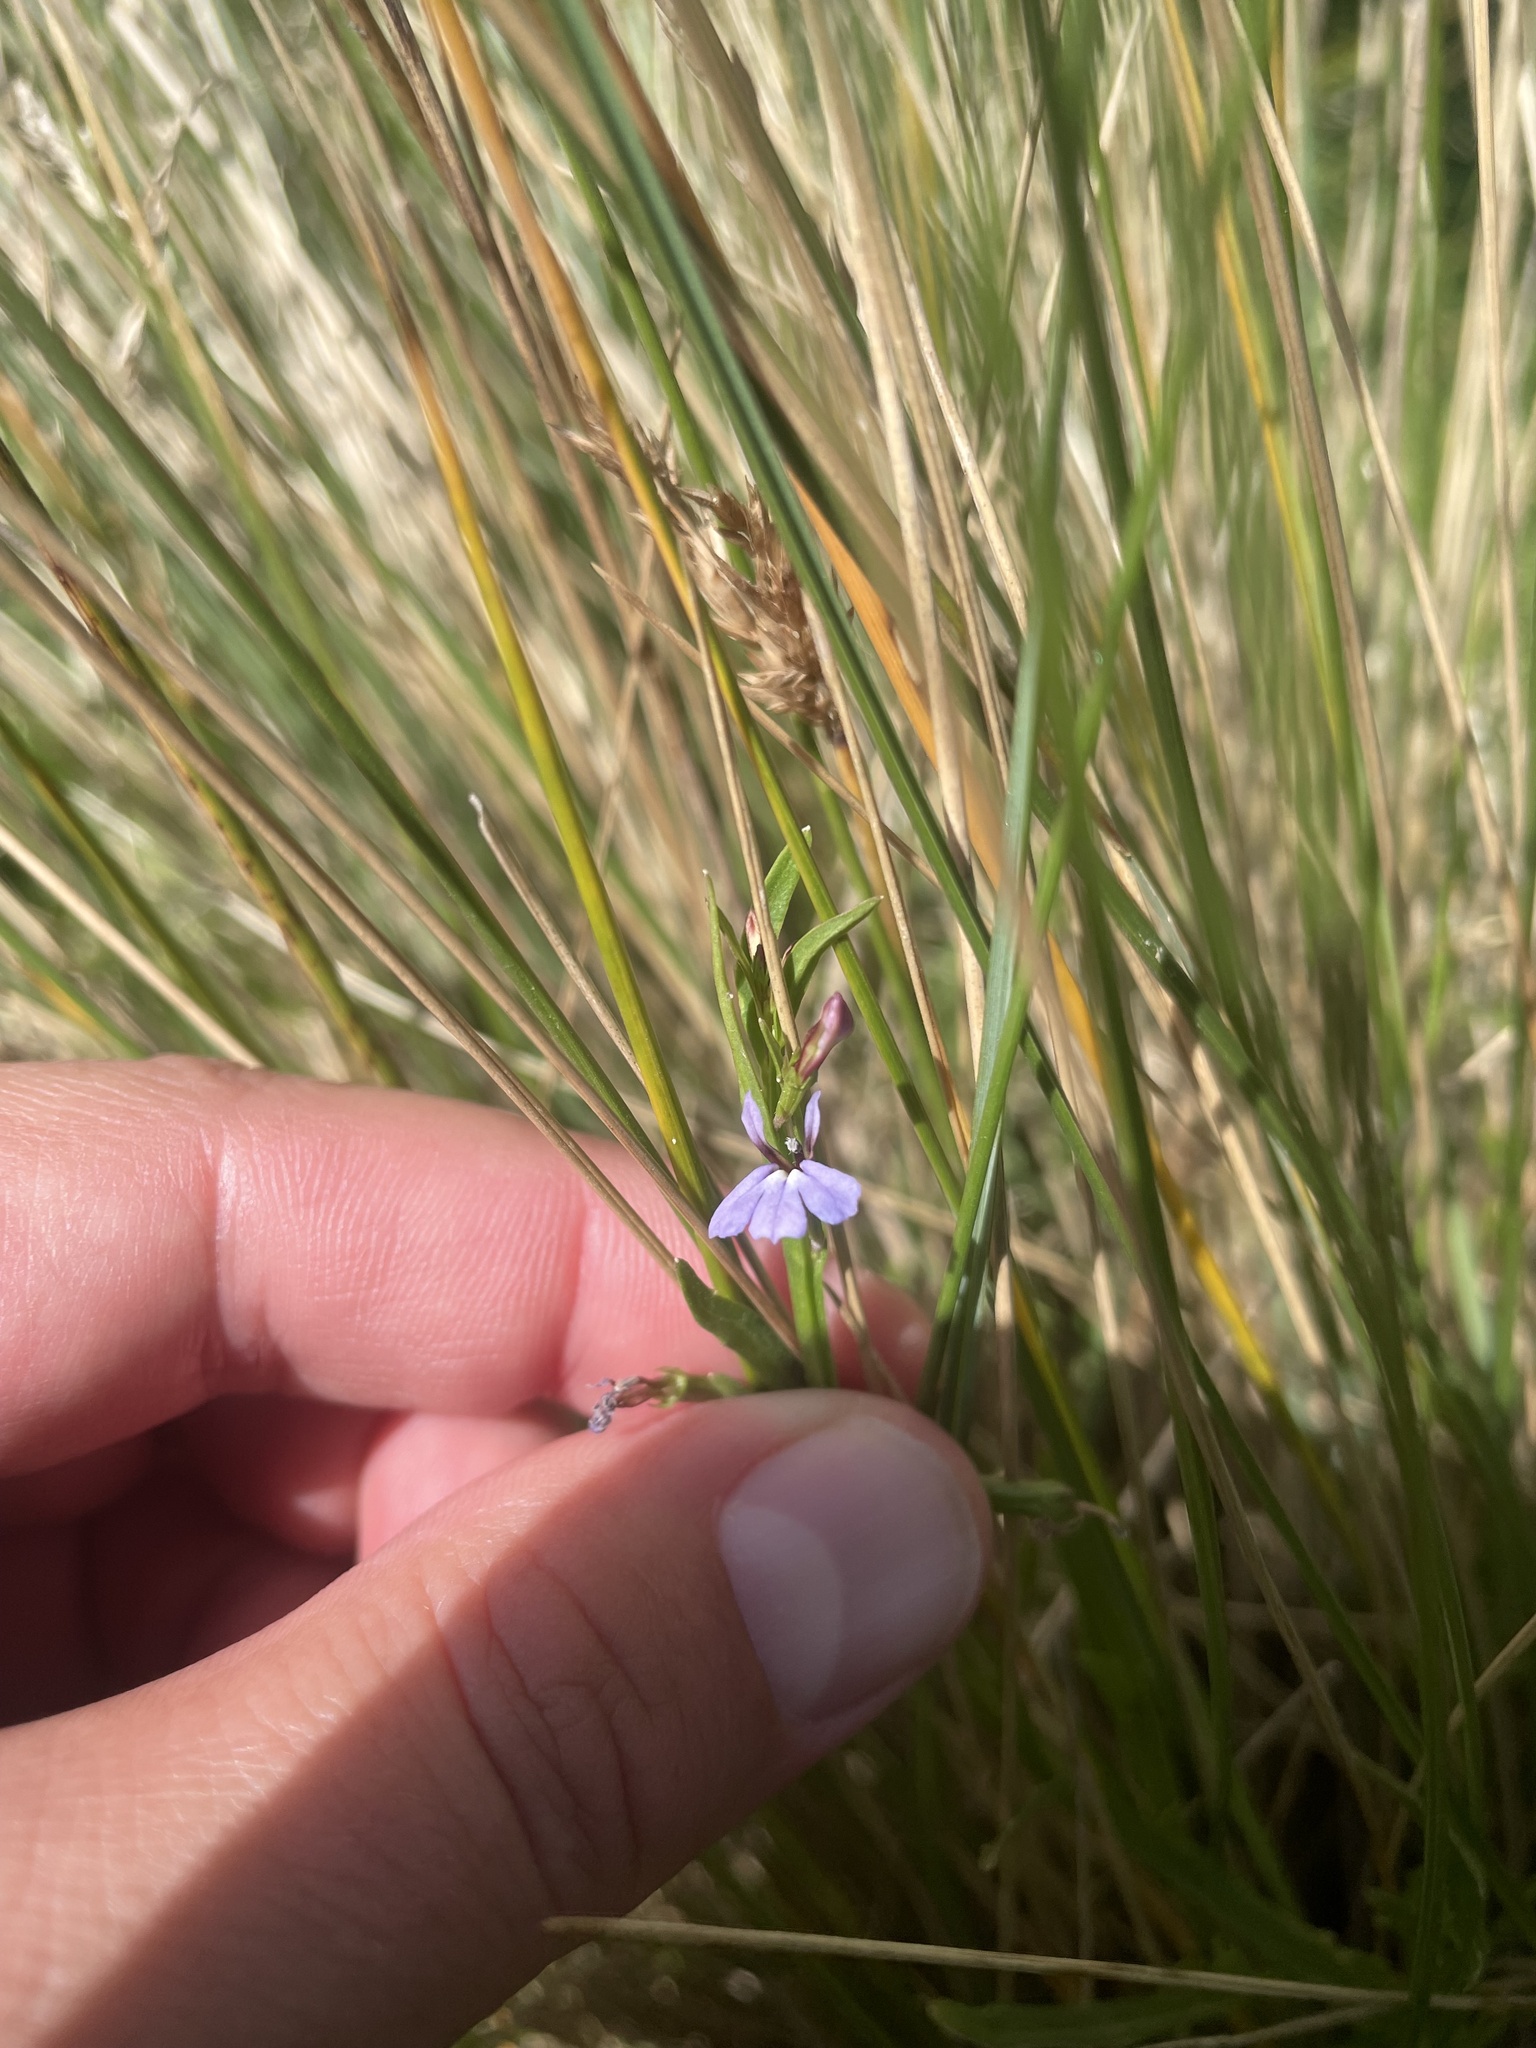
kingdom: Plantae
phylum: Tracheophyta
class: Magnoliopsida
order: Asterales
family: Campanulaceae
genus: Lobelia
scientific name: Lobelia anceps
